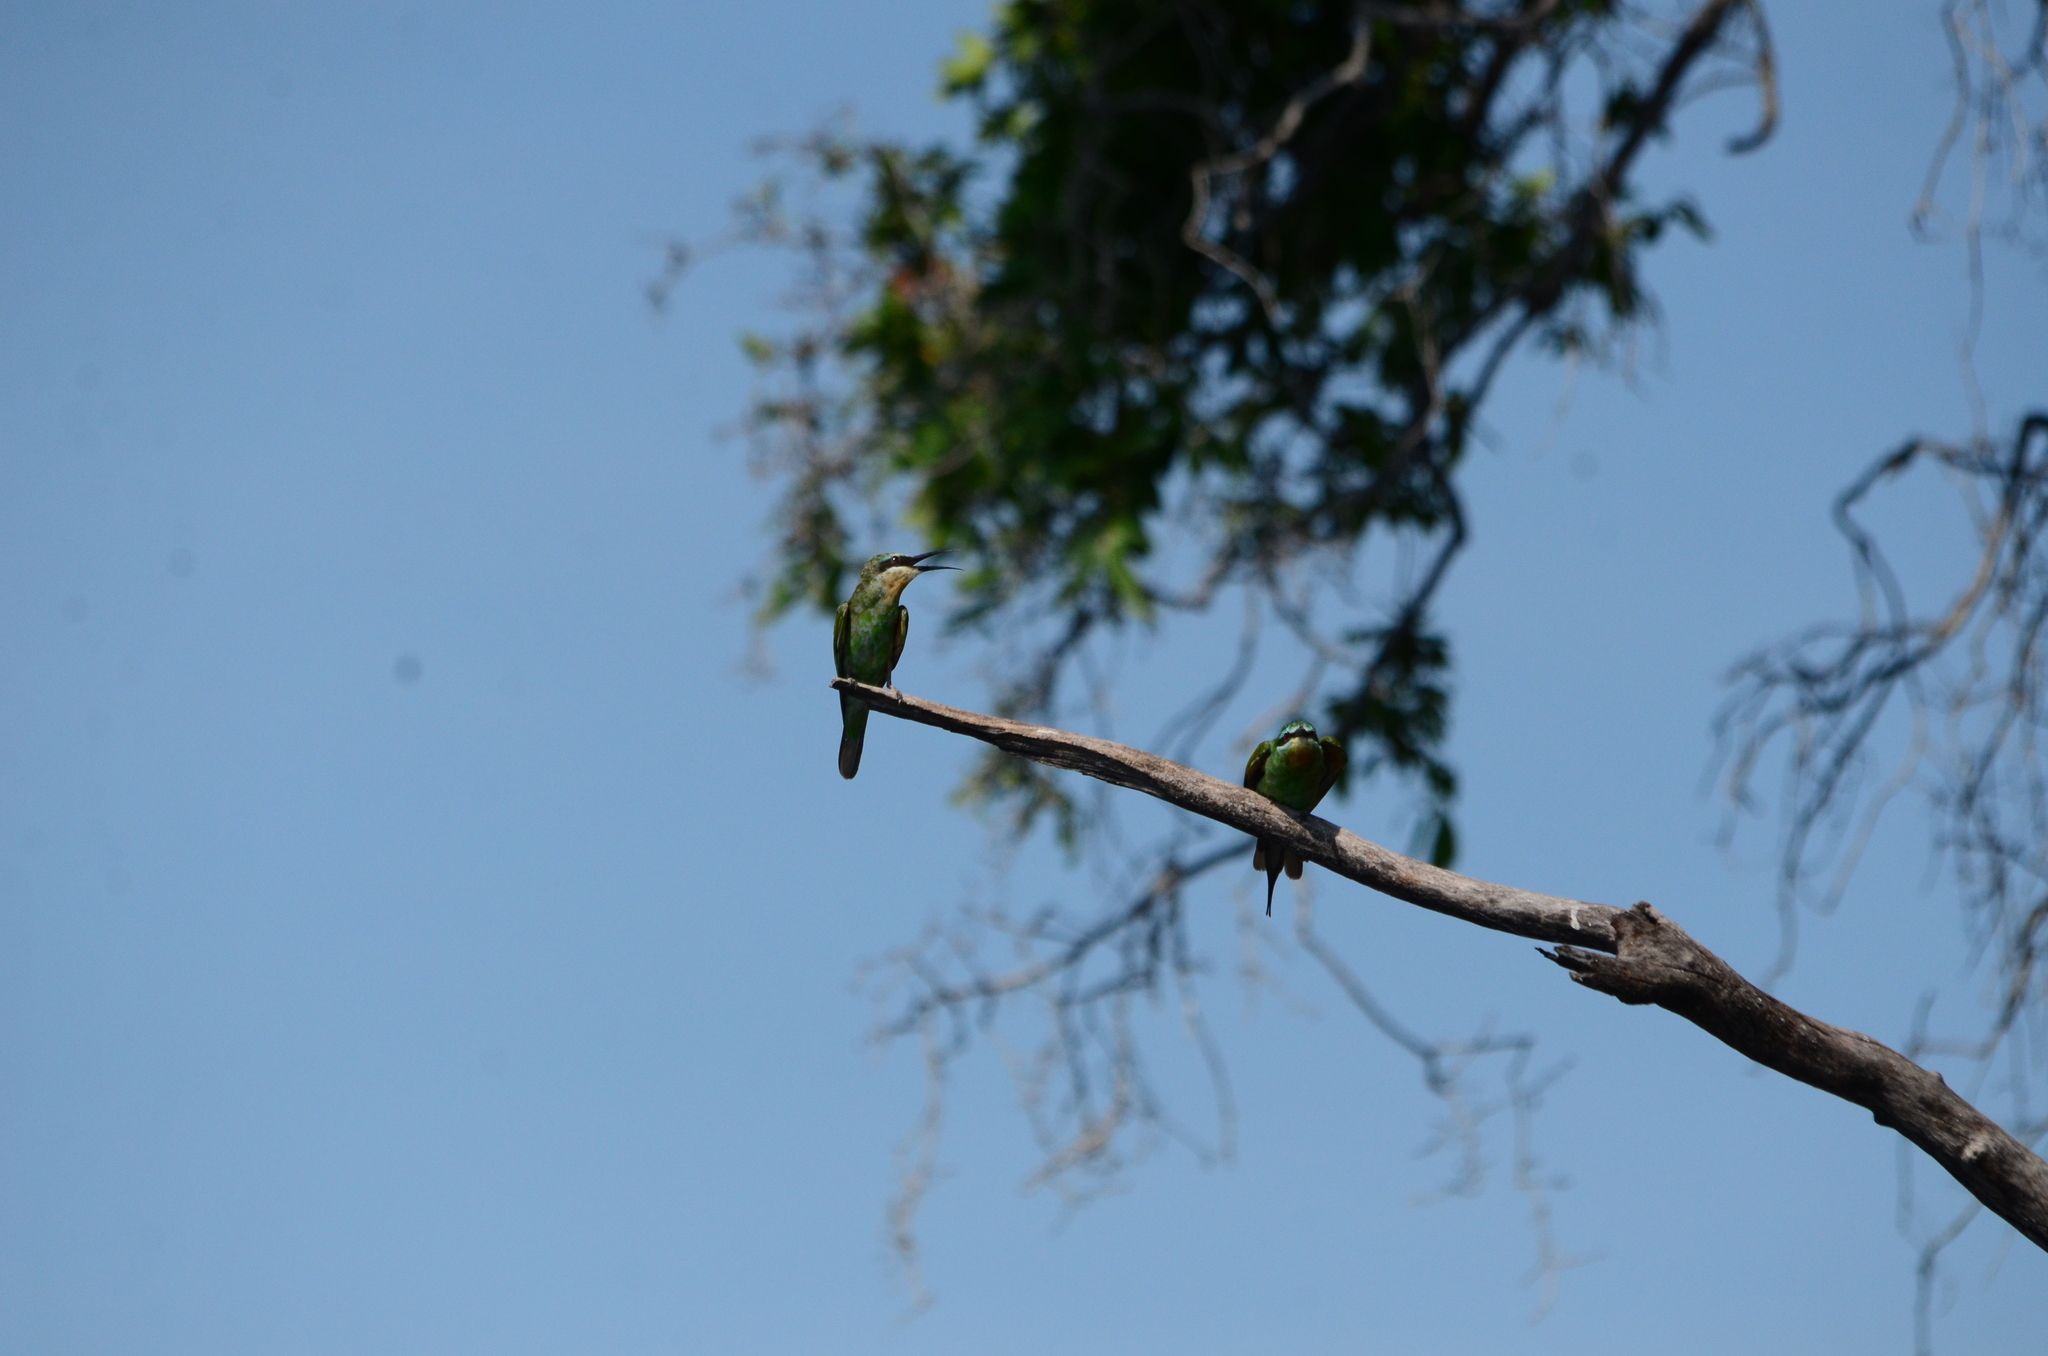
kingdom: Animalia
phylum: Chordata
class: Aves
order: Coraciiformes
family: Meropidae
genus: Merops
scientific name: Merops persicus
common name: Blue-cheeked bee-eater
